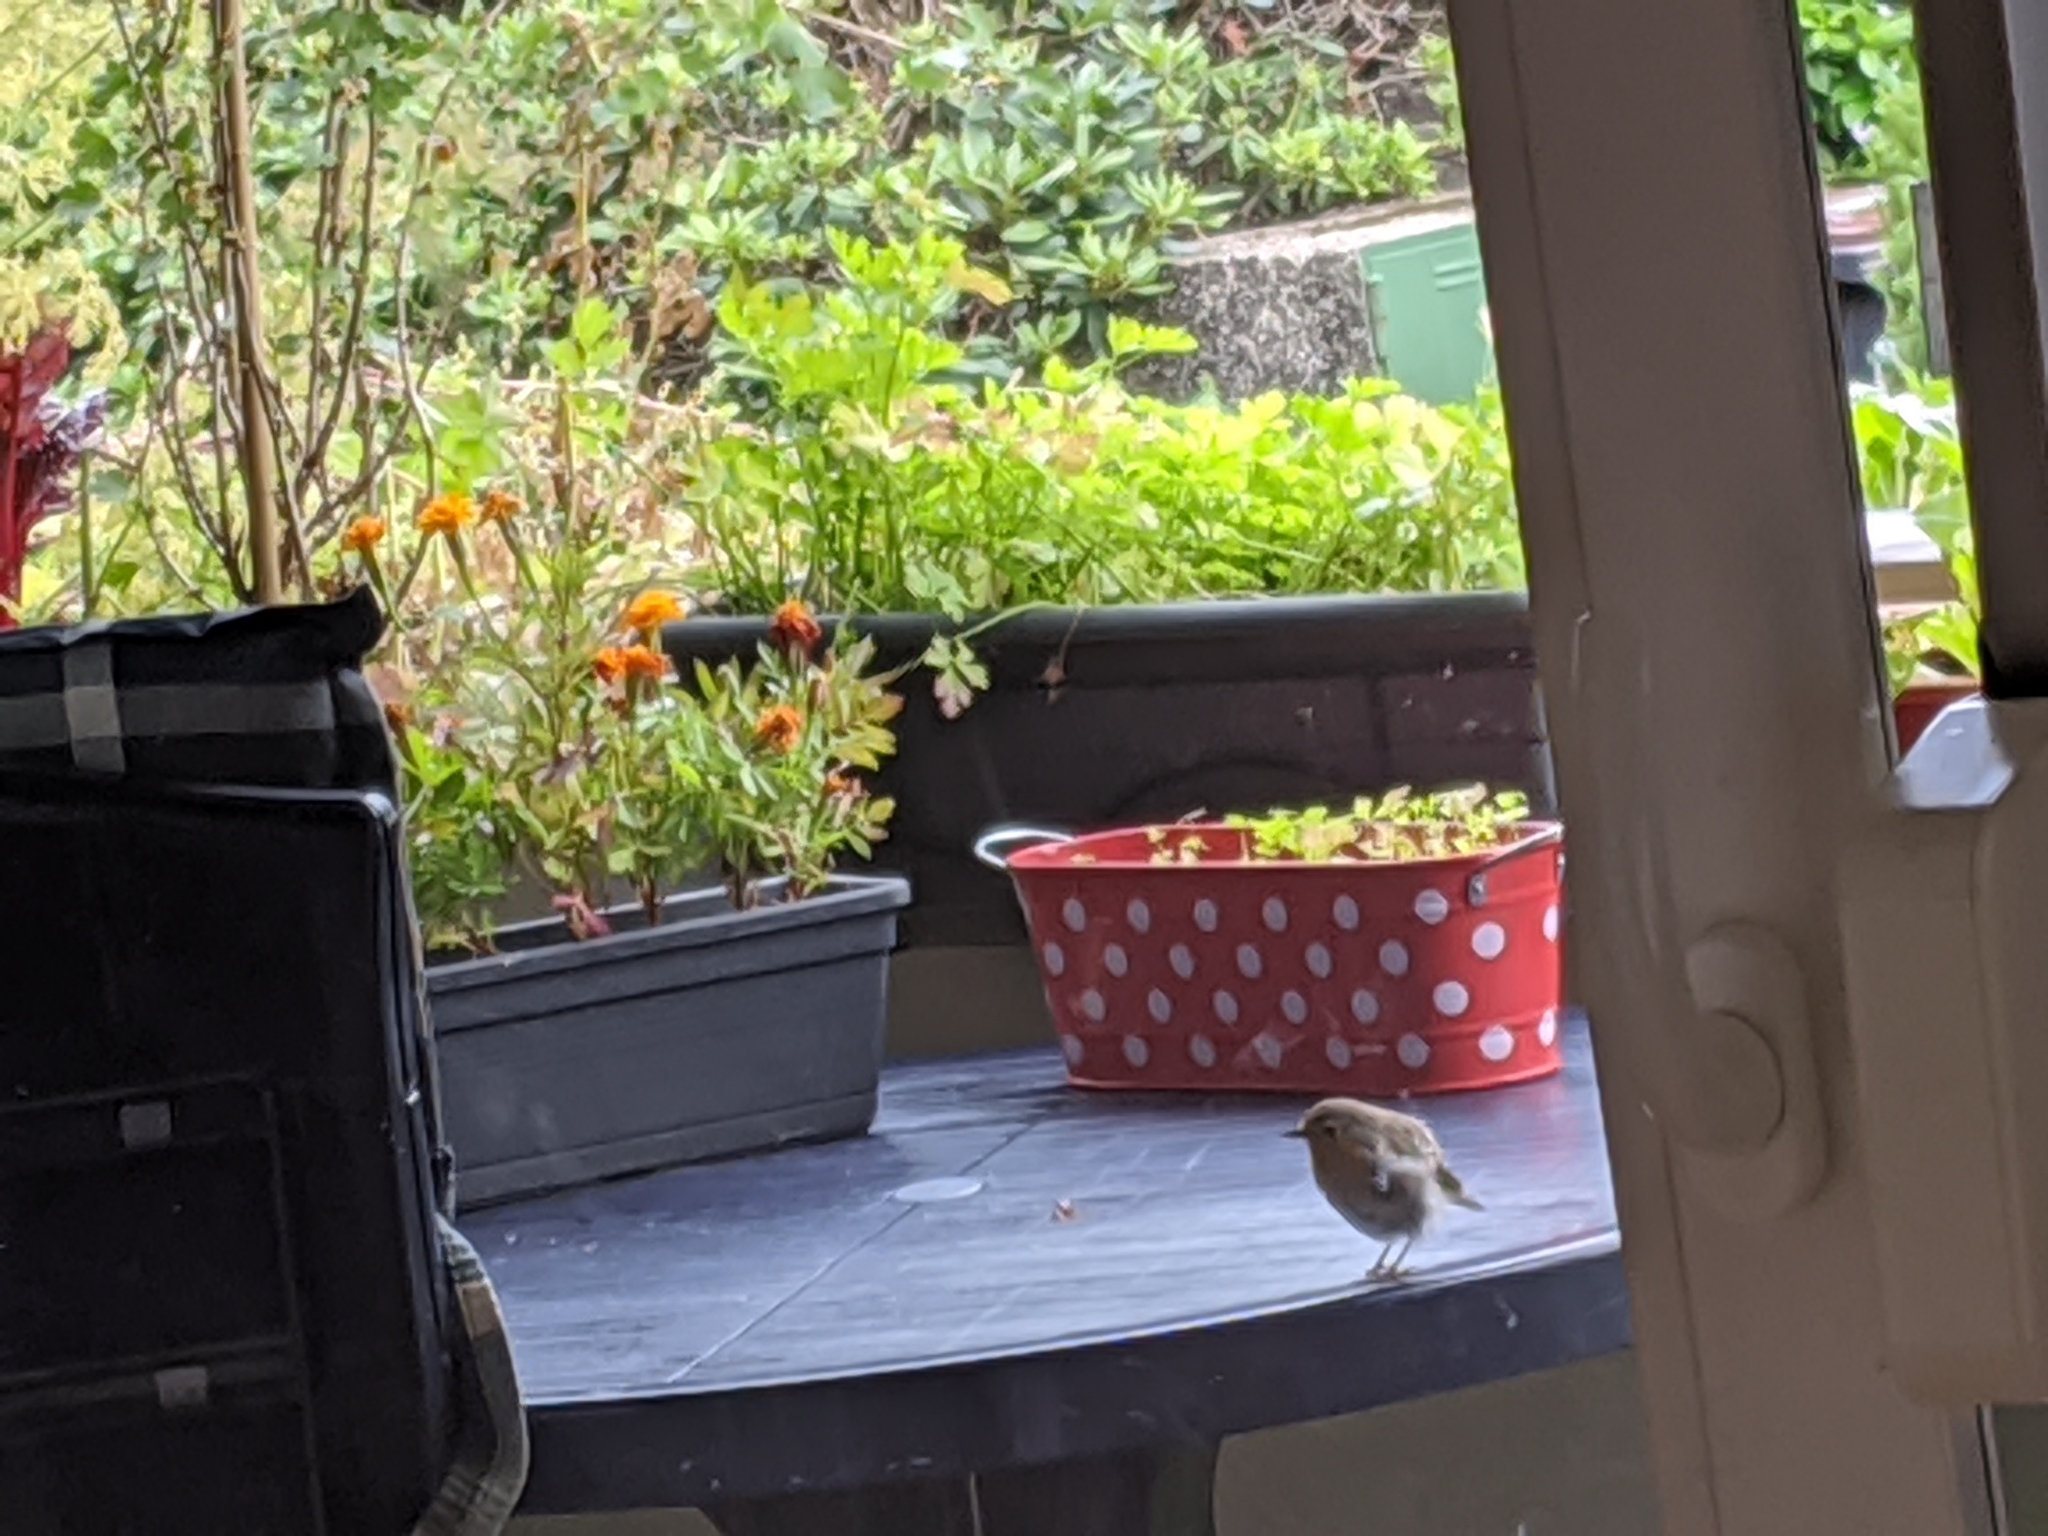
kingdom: Animalia
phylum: Chordata
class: Aves
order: Passeriformes
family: Muscicapidae
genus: Erithacus
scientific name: Erithacus rubecula
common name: European robin
